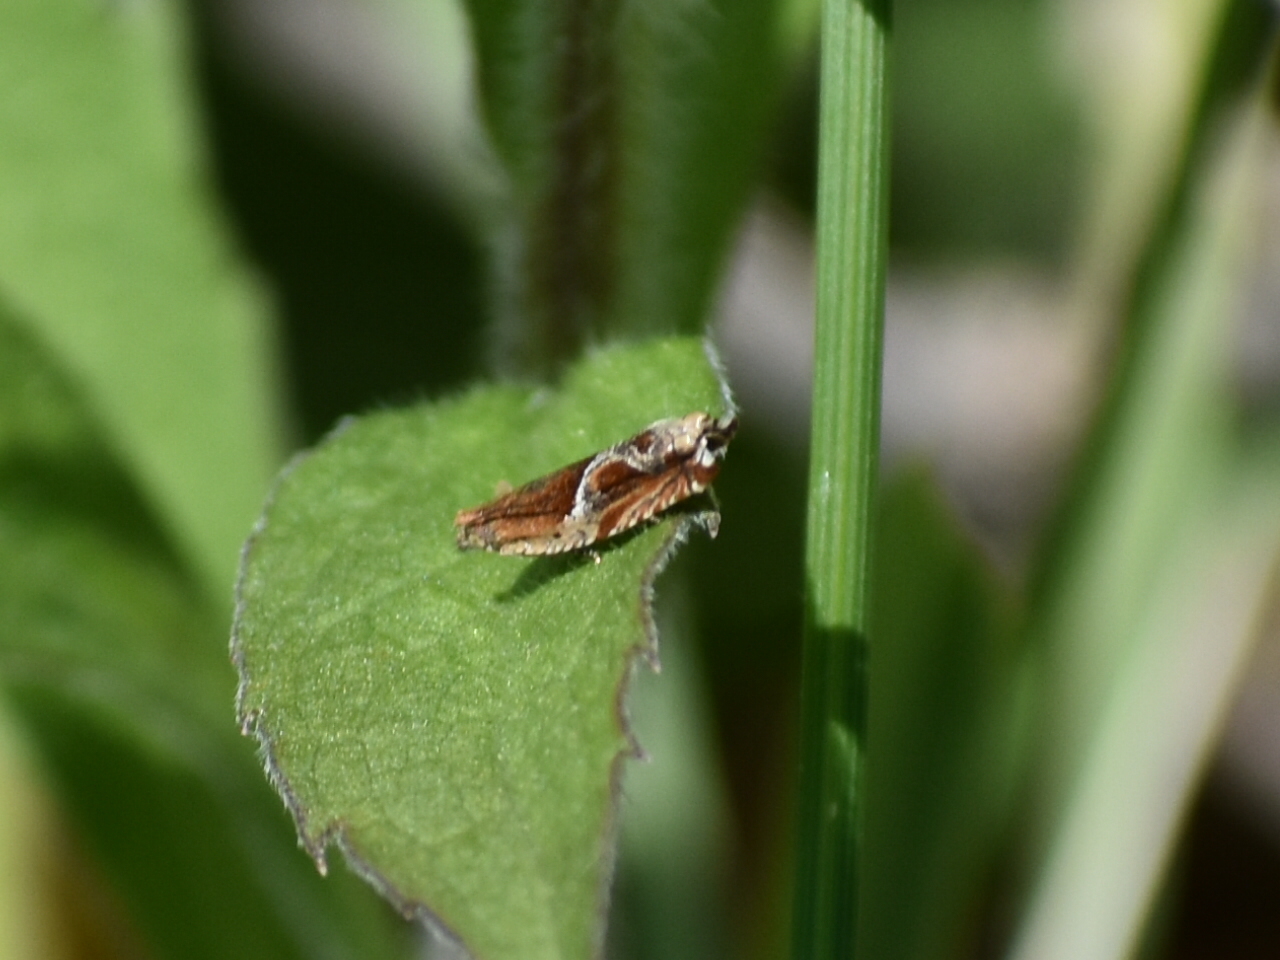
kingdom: Animalia
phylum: Arthropoda
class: Insecta
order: Lepidoptera
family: Tortricidae
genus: Ancylis
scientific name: Ancylis comptana
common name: Little roller
